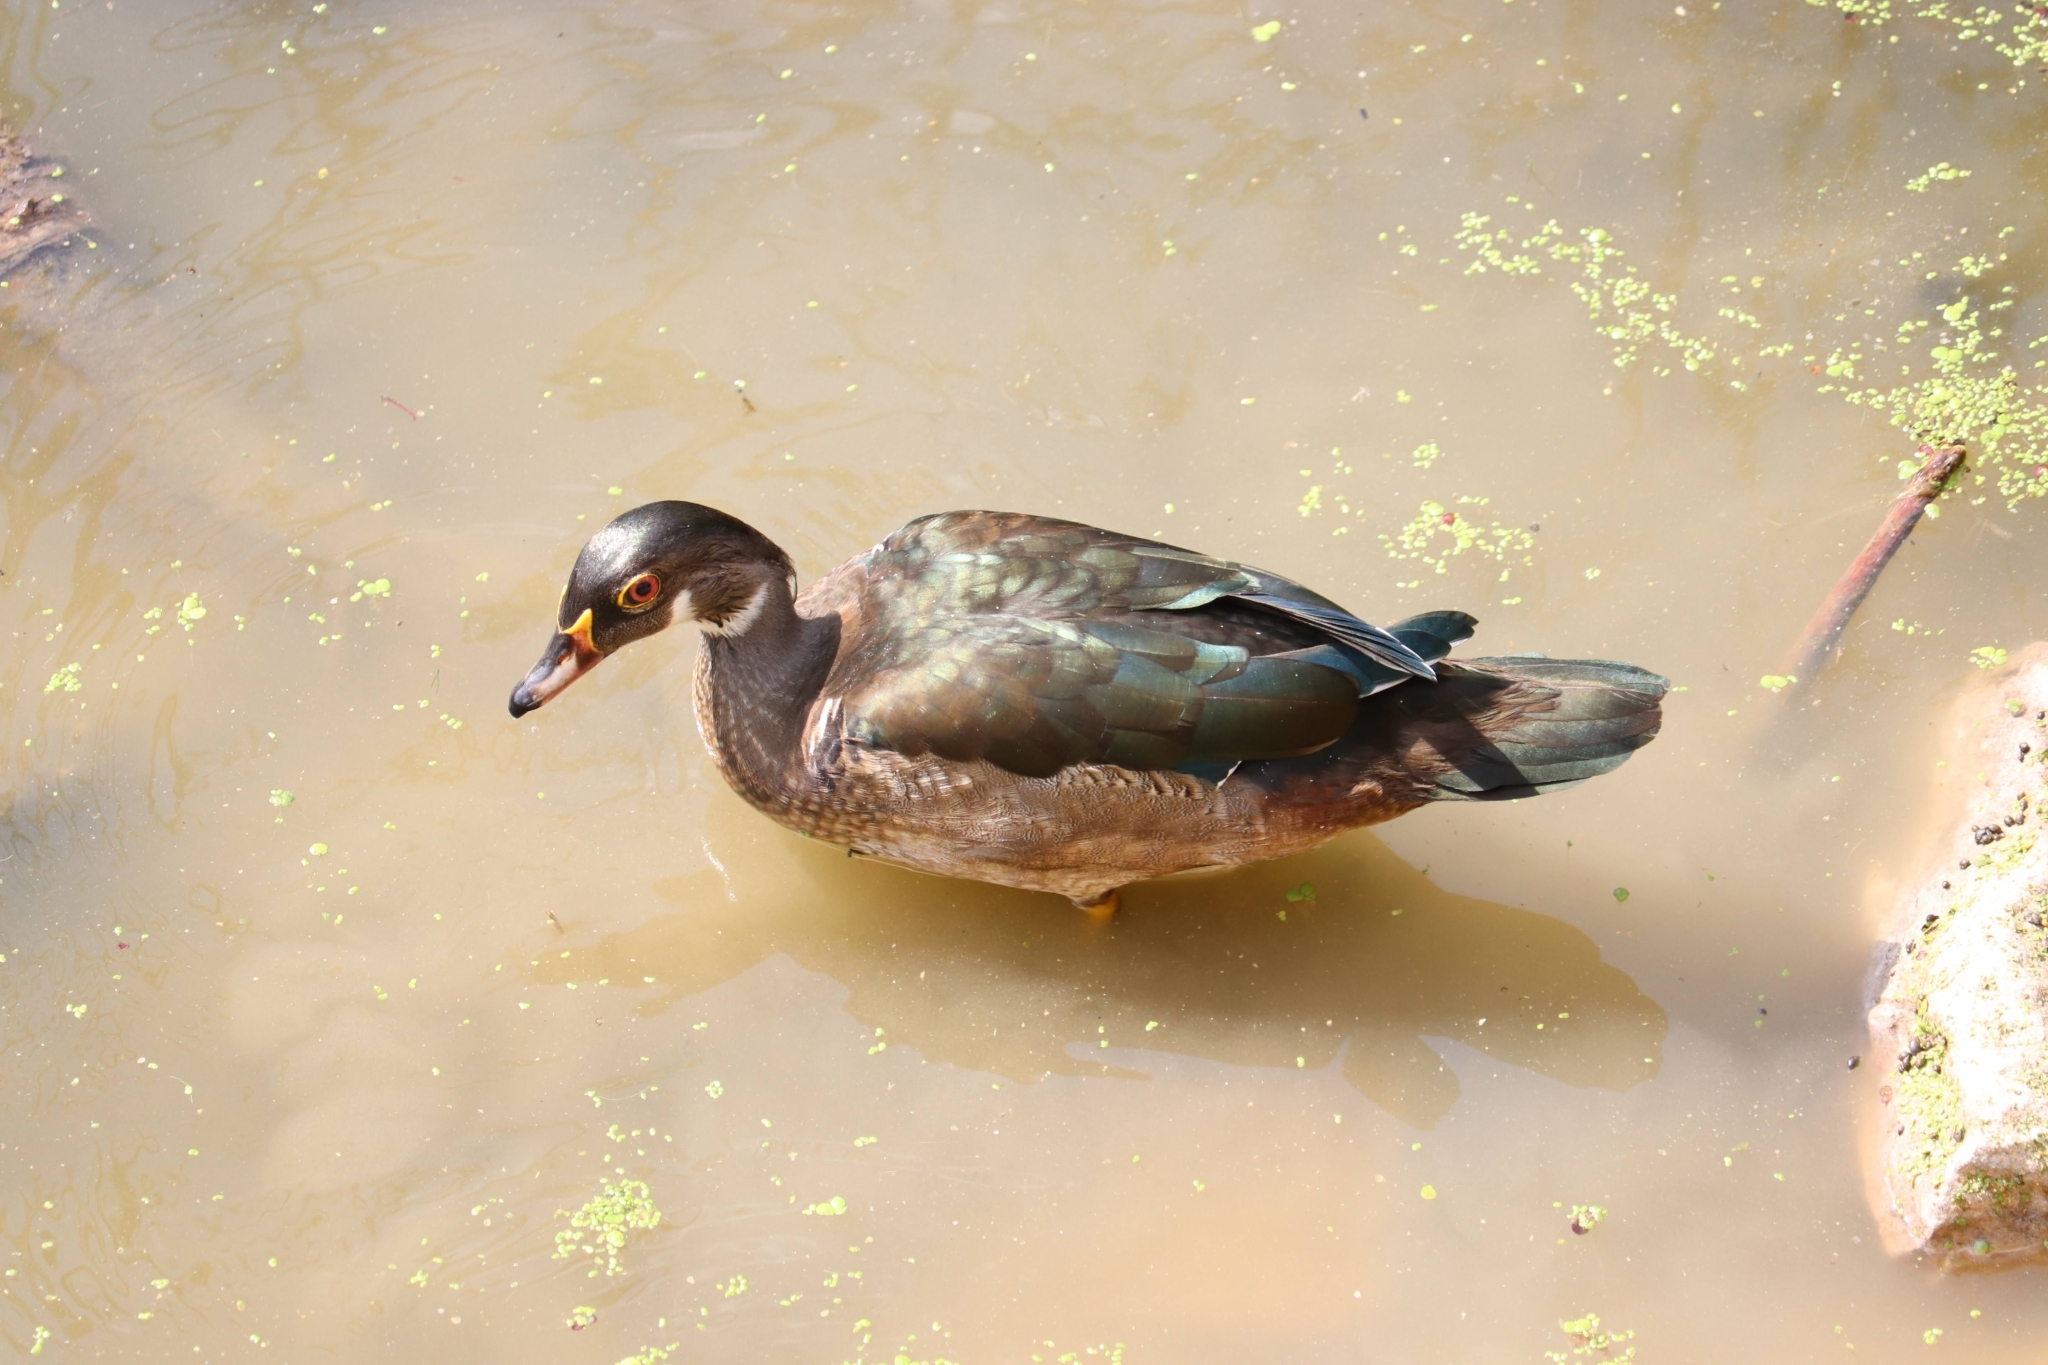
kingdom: Animalia
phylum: Chordata
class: Aves
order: Anseriformes
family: Anatidae
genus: Aix
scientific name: Aix sponsa
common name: Wood duck
